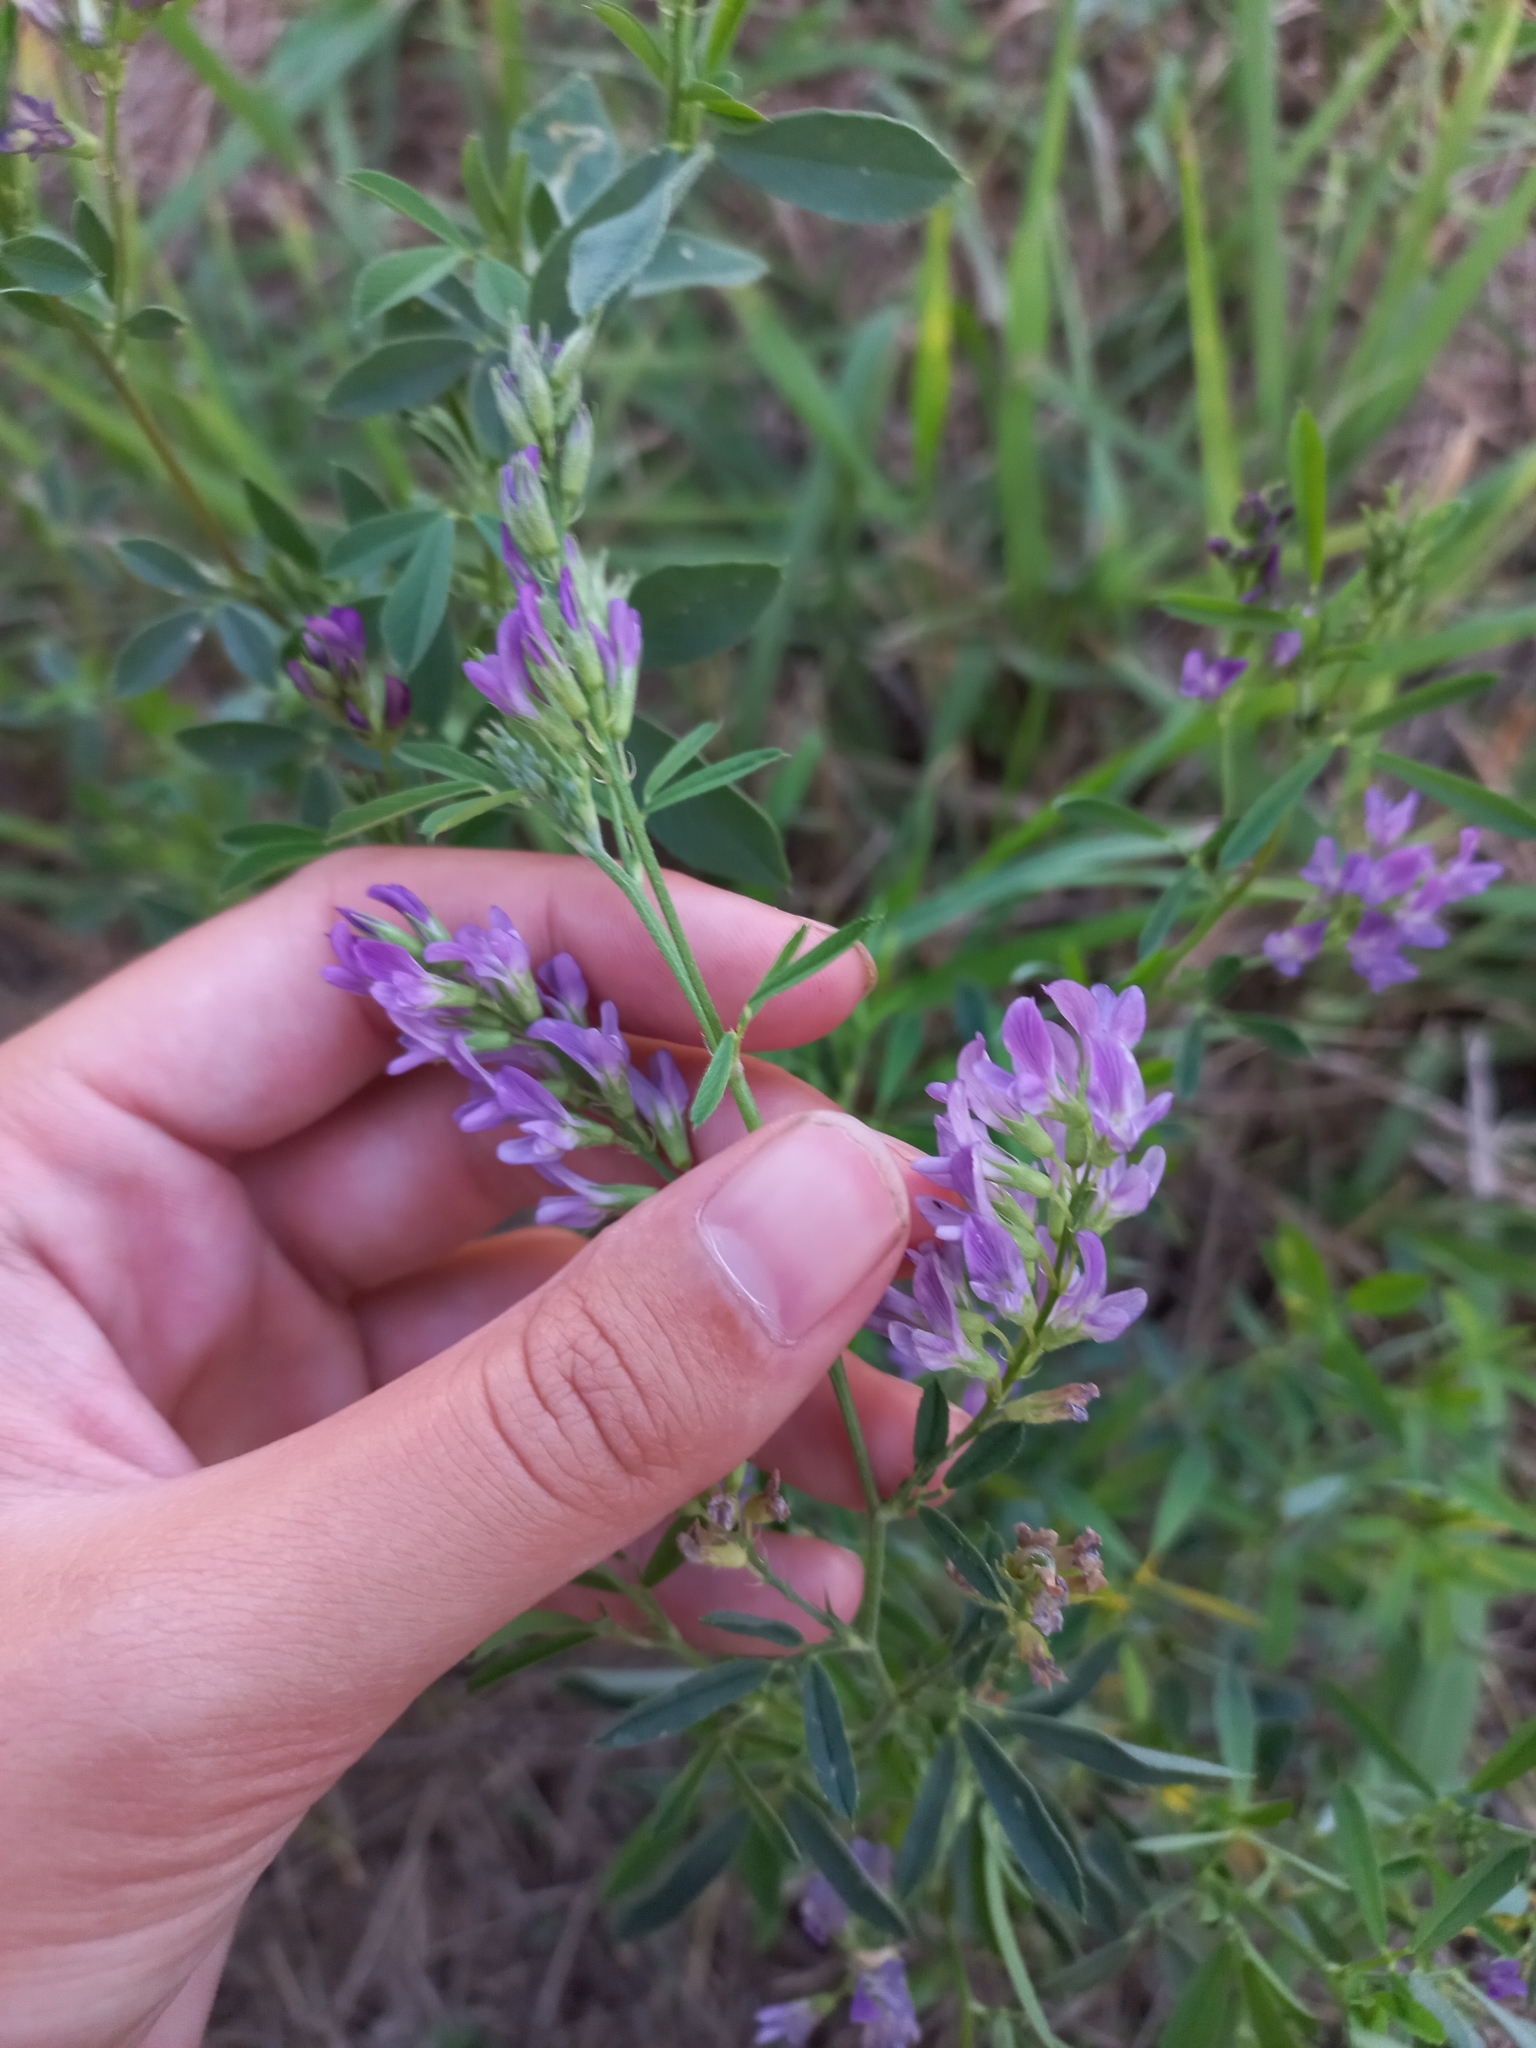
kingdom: Plantae
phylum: Tracheophyta
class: Magnoliopsida
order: Fabales
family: Fabaceae
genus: Medicago
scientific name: Medicago sativa
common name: Alfalfa
